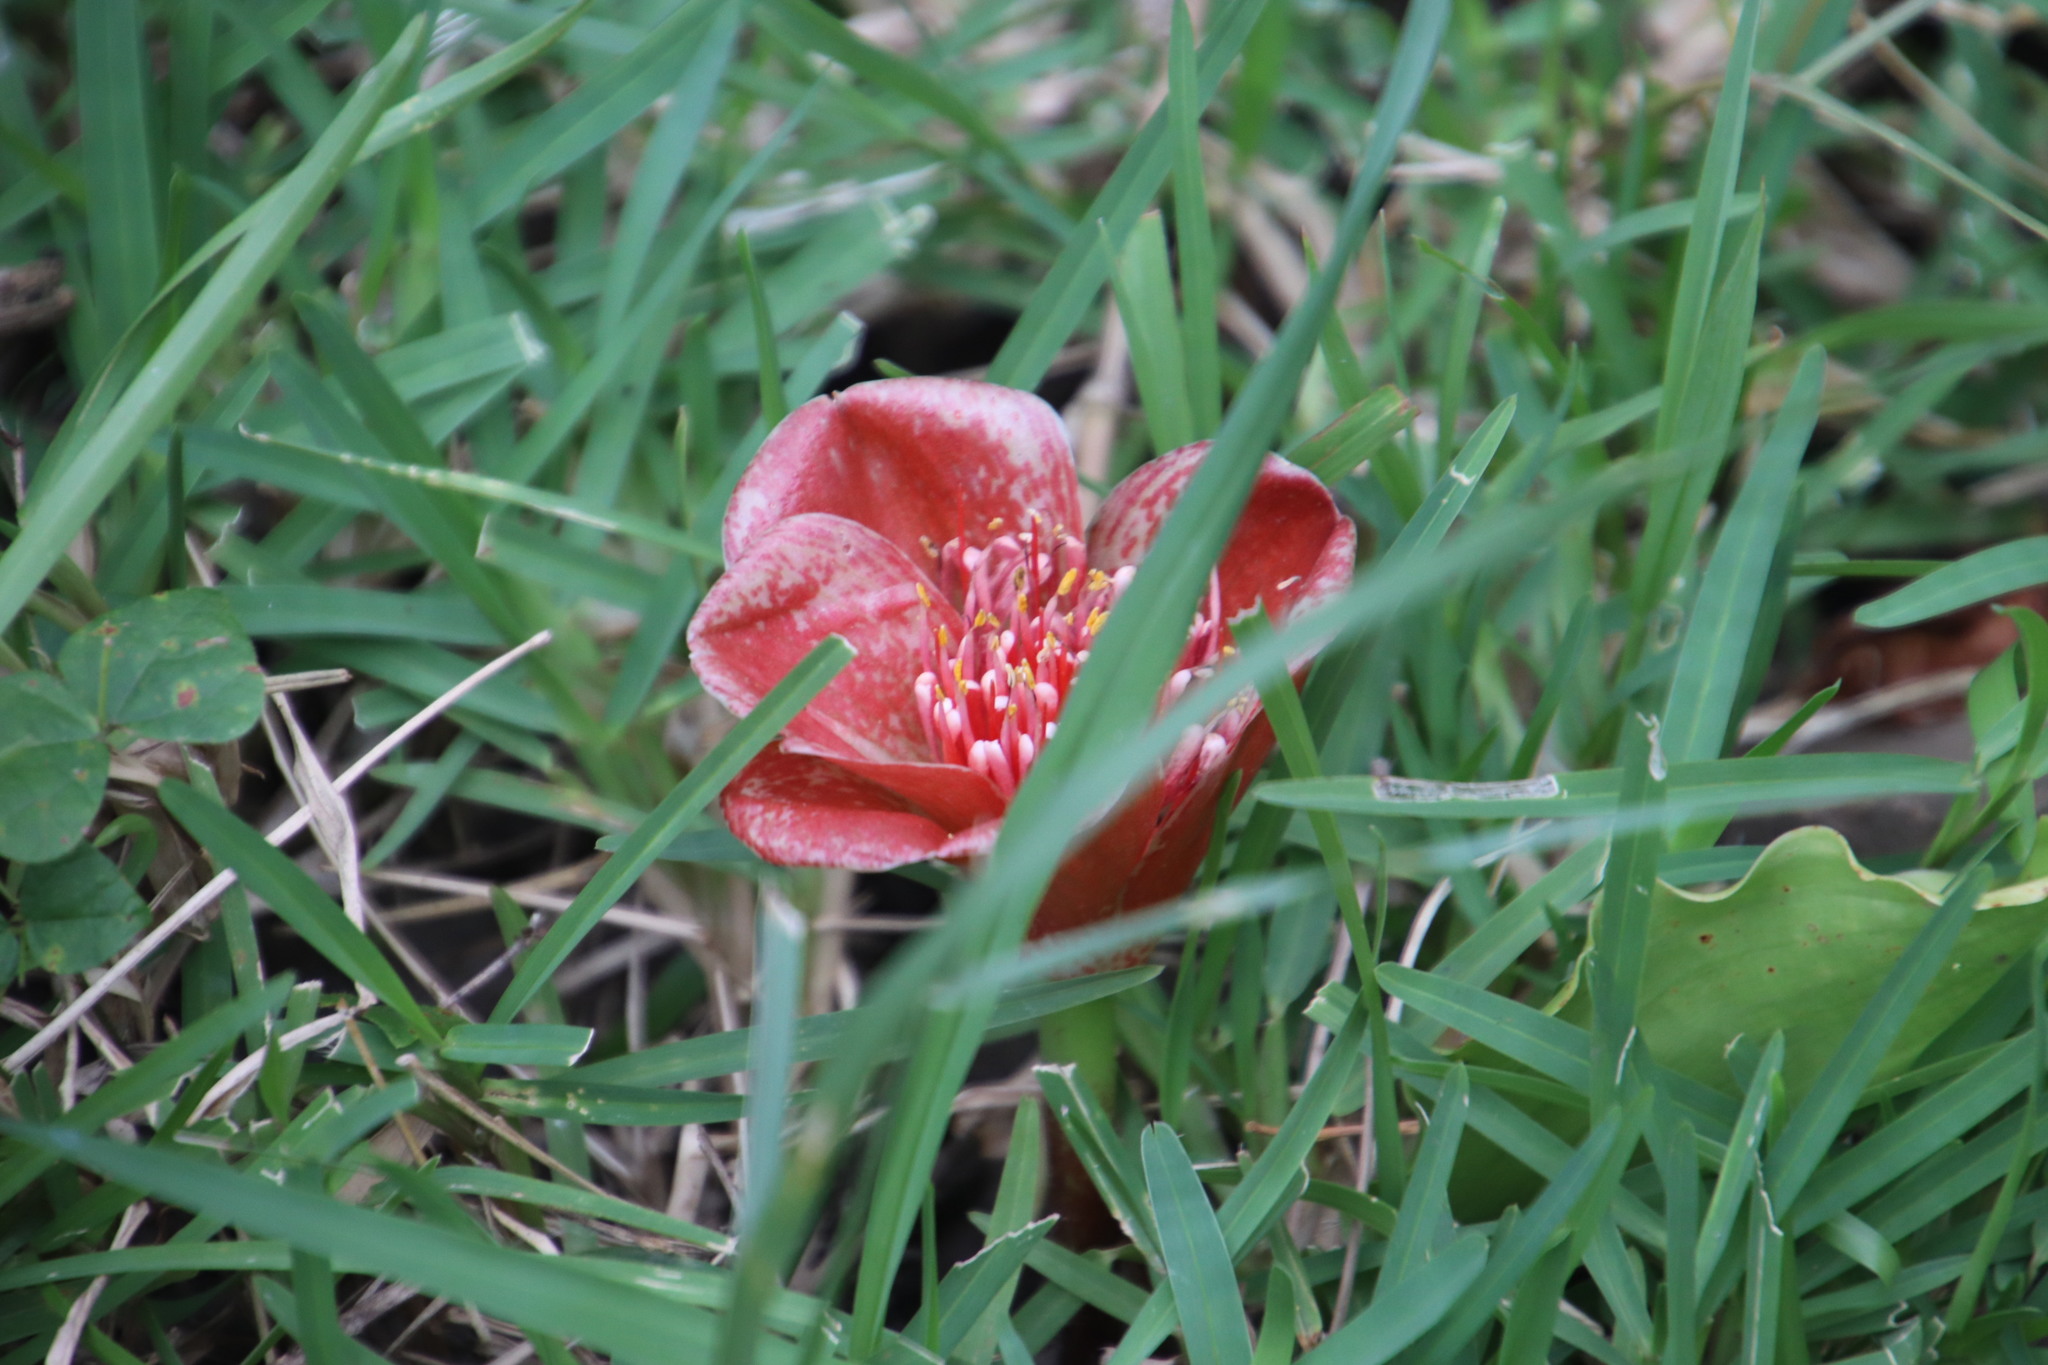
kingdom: Plantae
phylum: Tracheophyta
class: Liliopsida
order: Asparagales
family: Amaryllidaceae
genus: Scadoxus
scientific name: Scadoxus membranaceus
